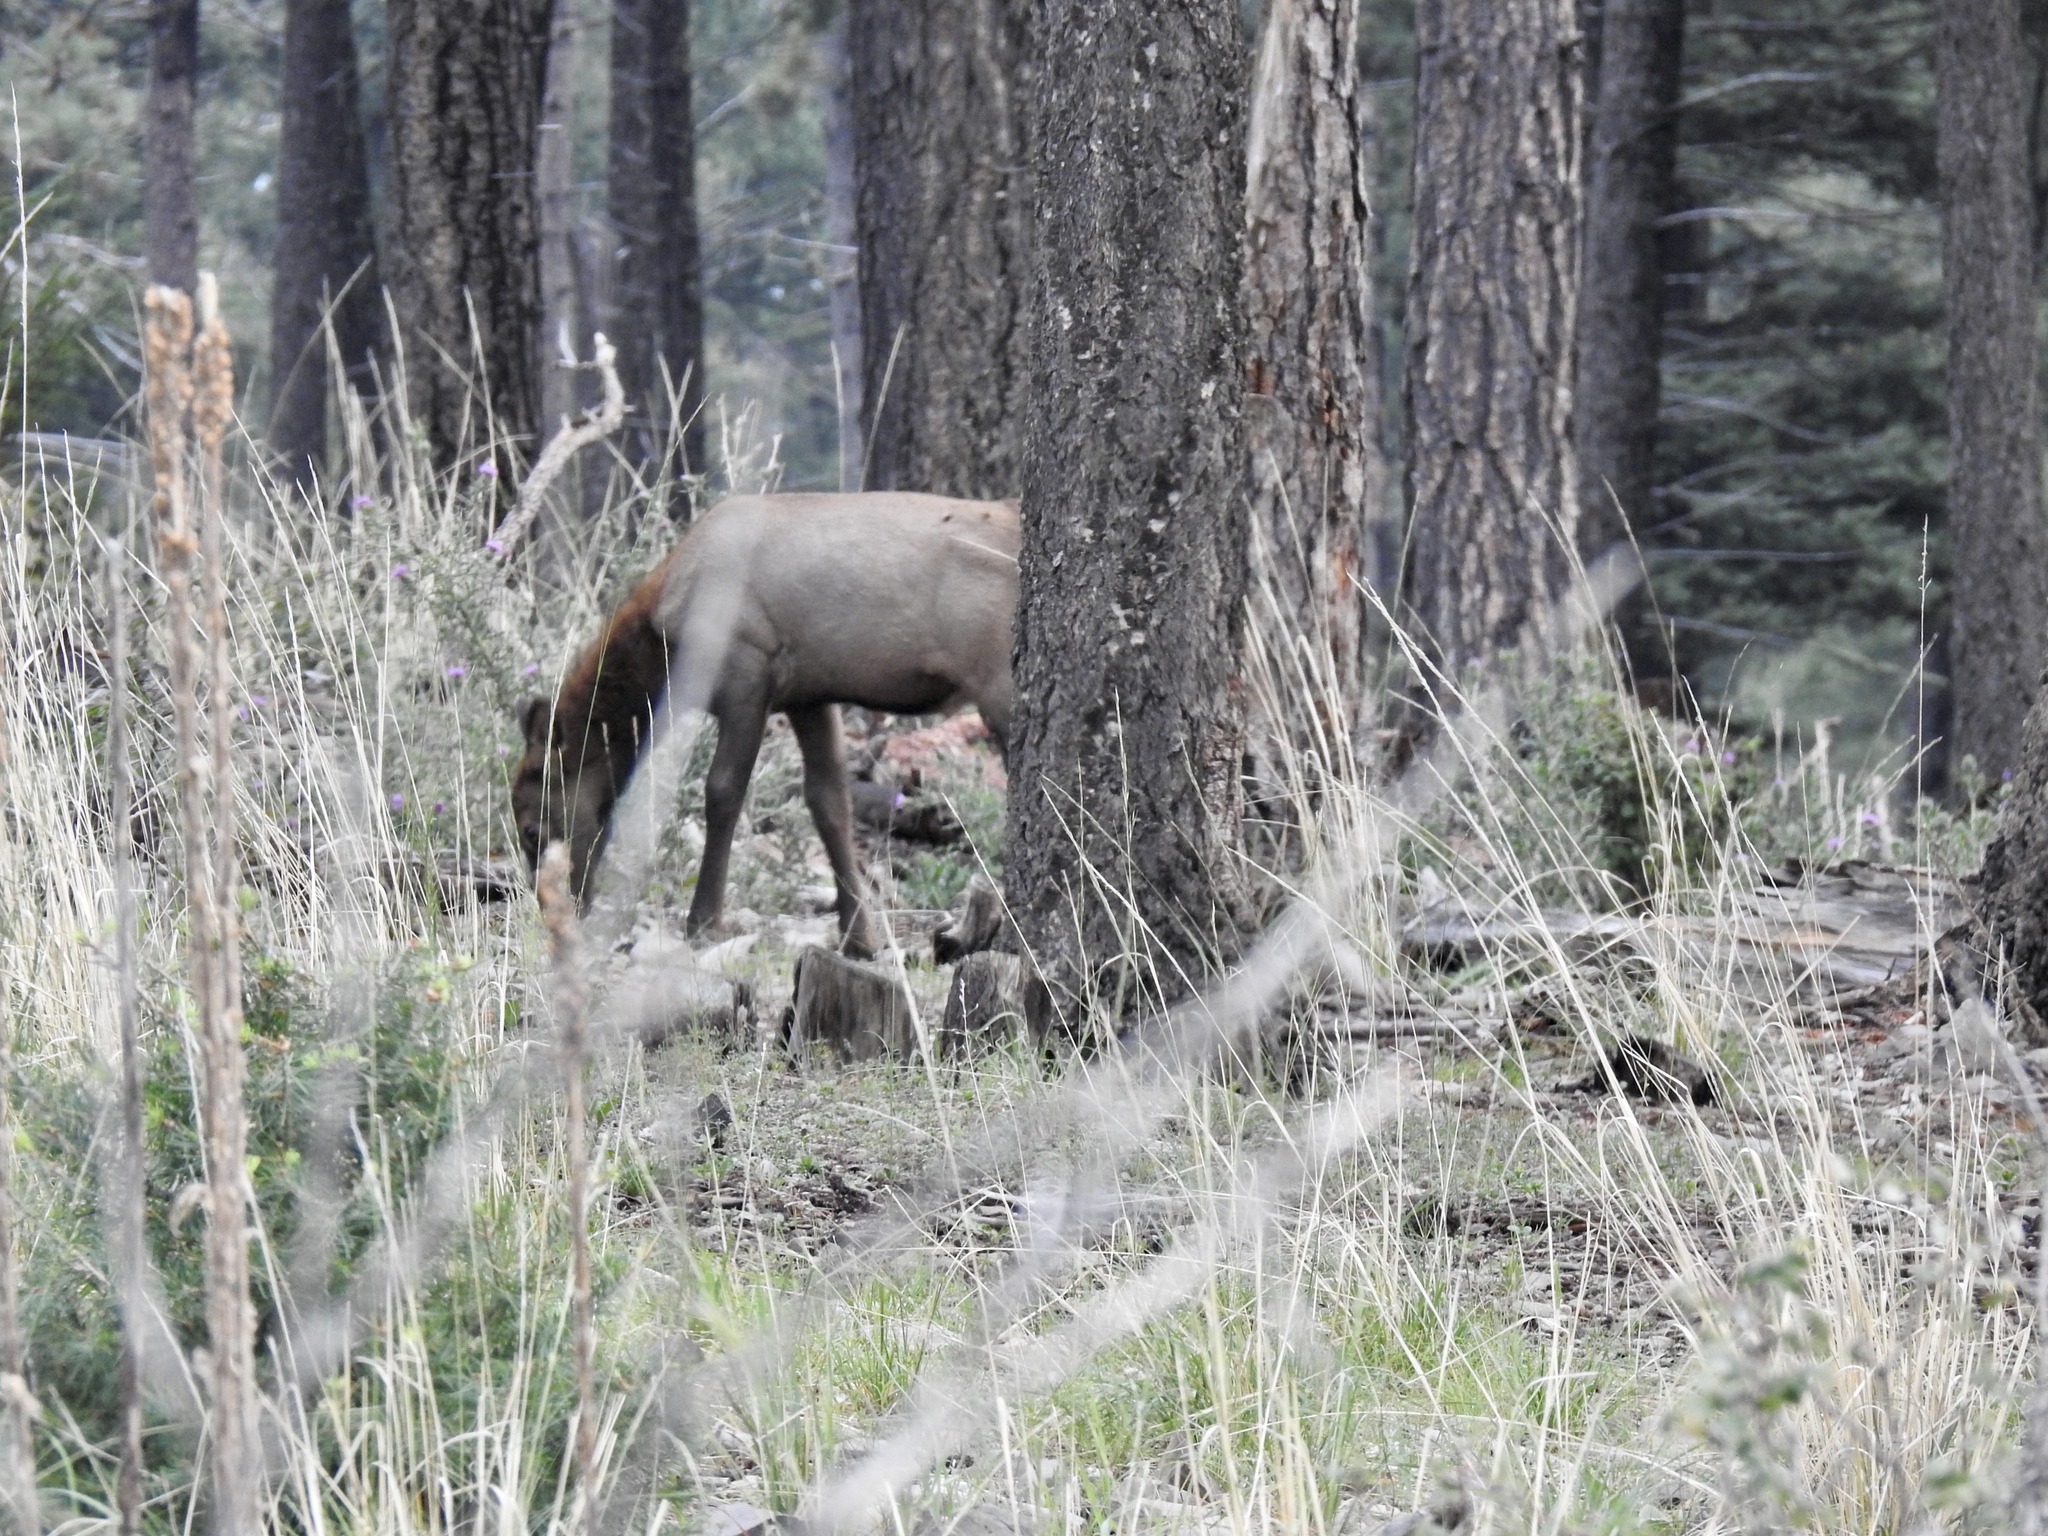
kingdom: Animalia
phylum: Chordata
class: Mammalia
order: Artiodactyla
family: Cervidae
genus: Cervus
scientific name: Cervus elaphus
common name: Red deer
